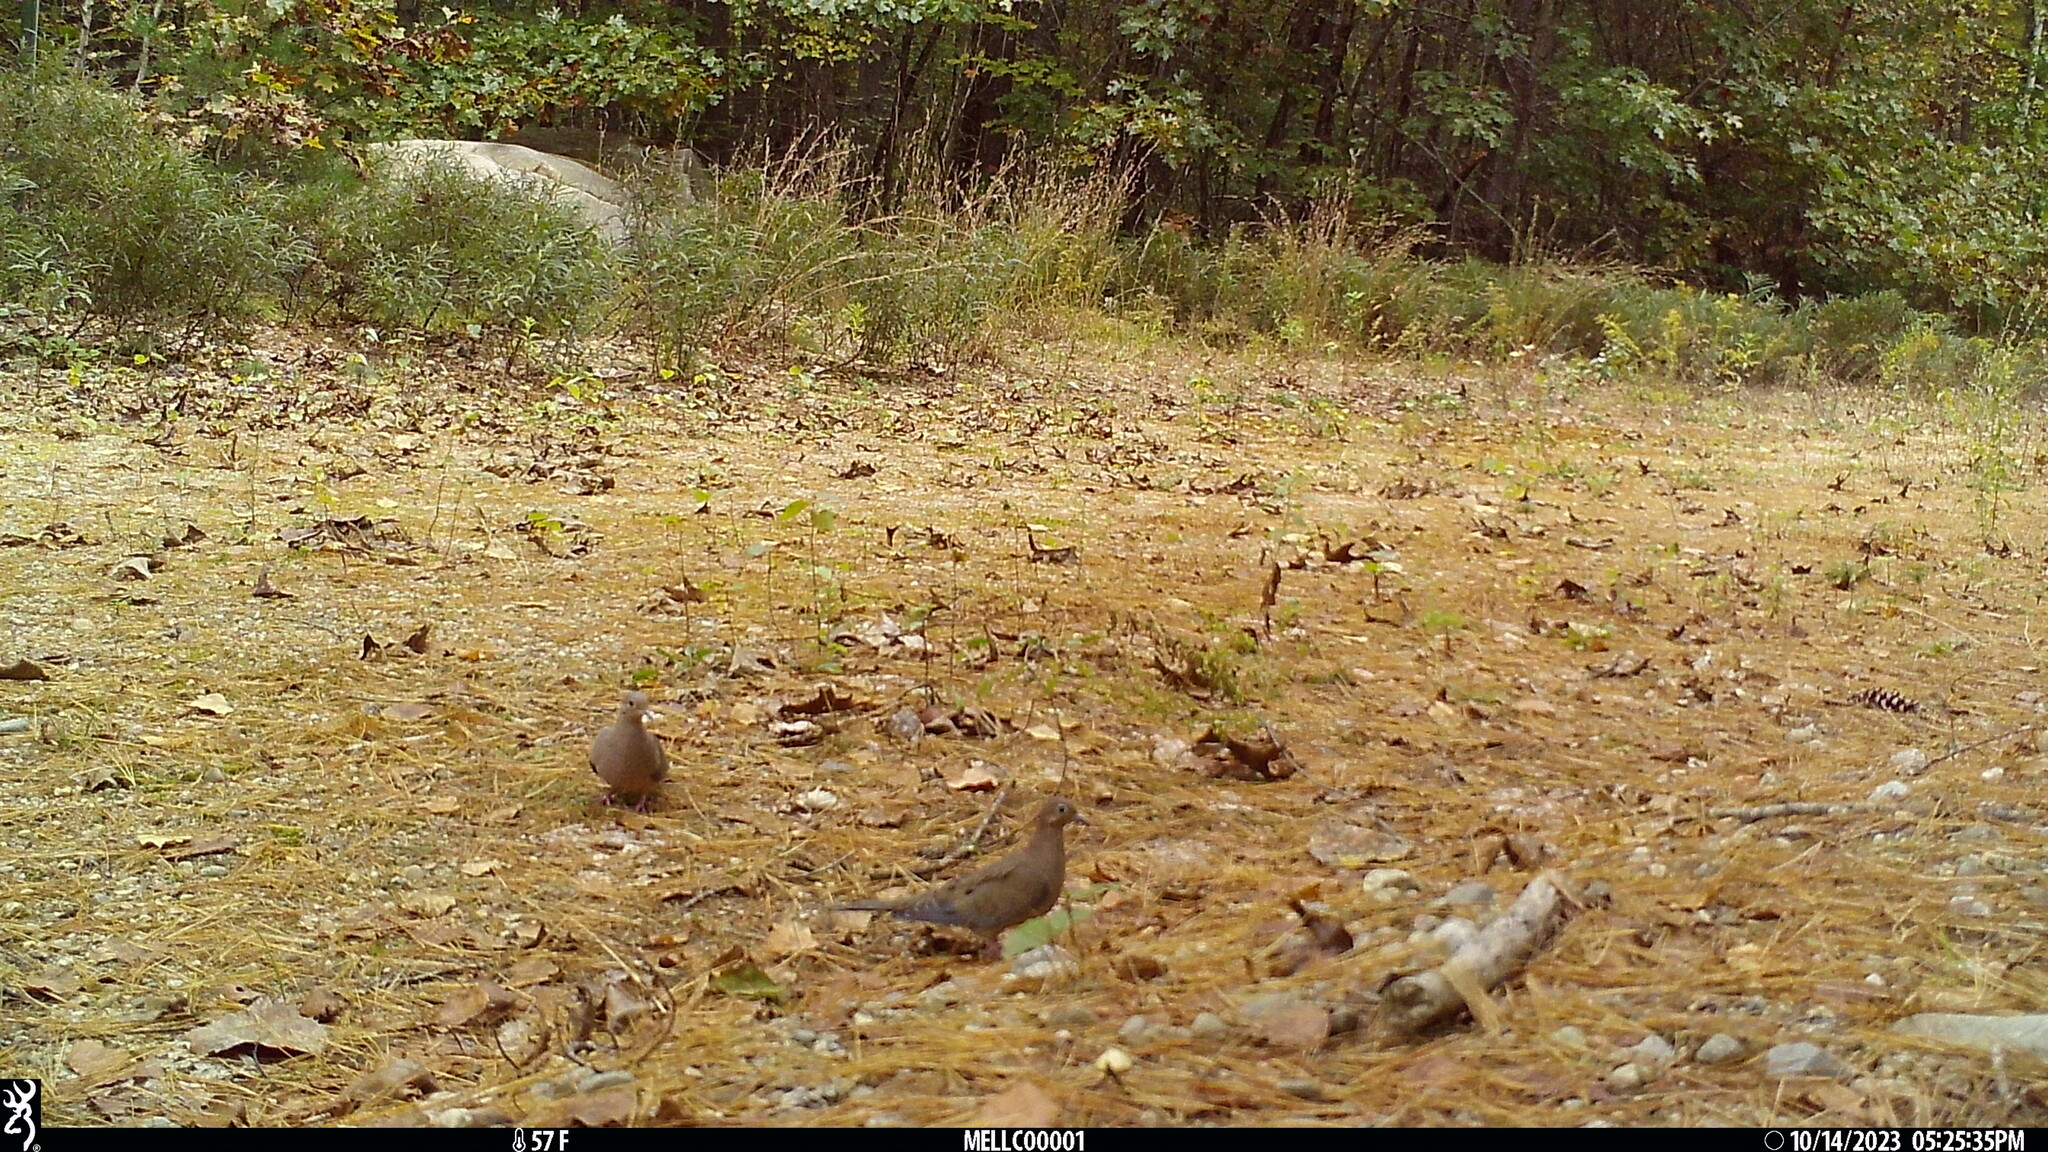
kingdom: Animalia
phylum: Chordata
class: Aves
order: Columbiformes
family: Columbidae
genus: Zenaida
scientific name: Zenaida macroura
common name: Mourning dove
